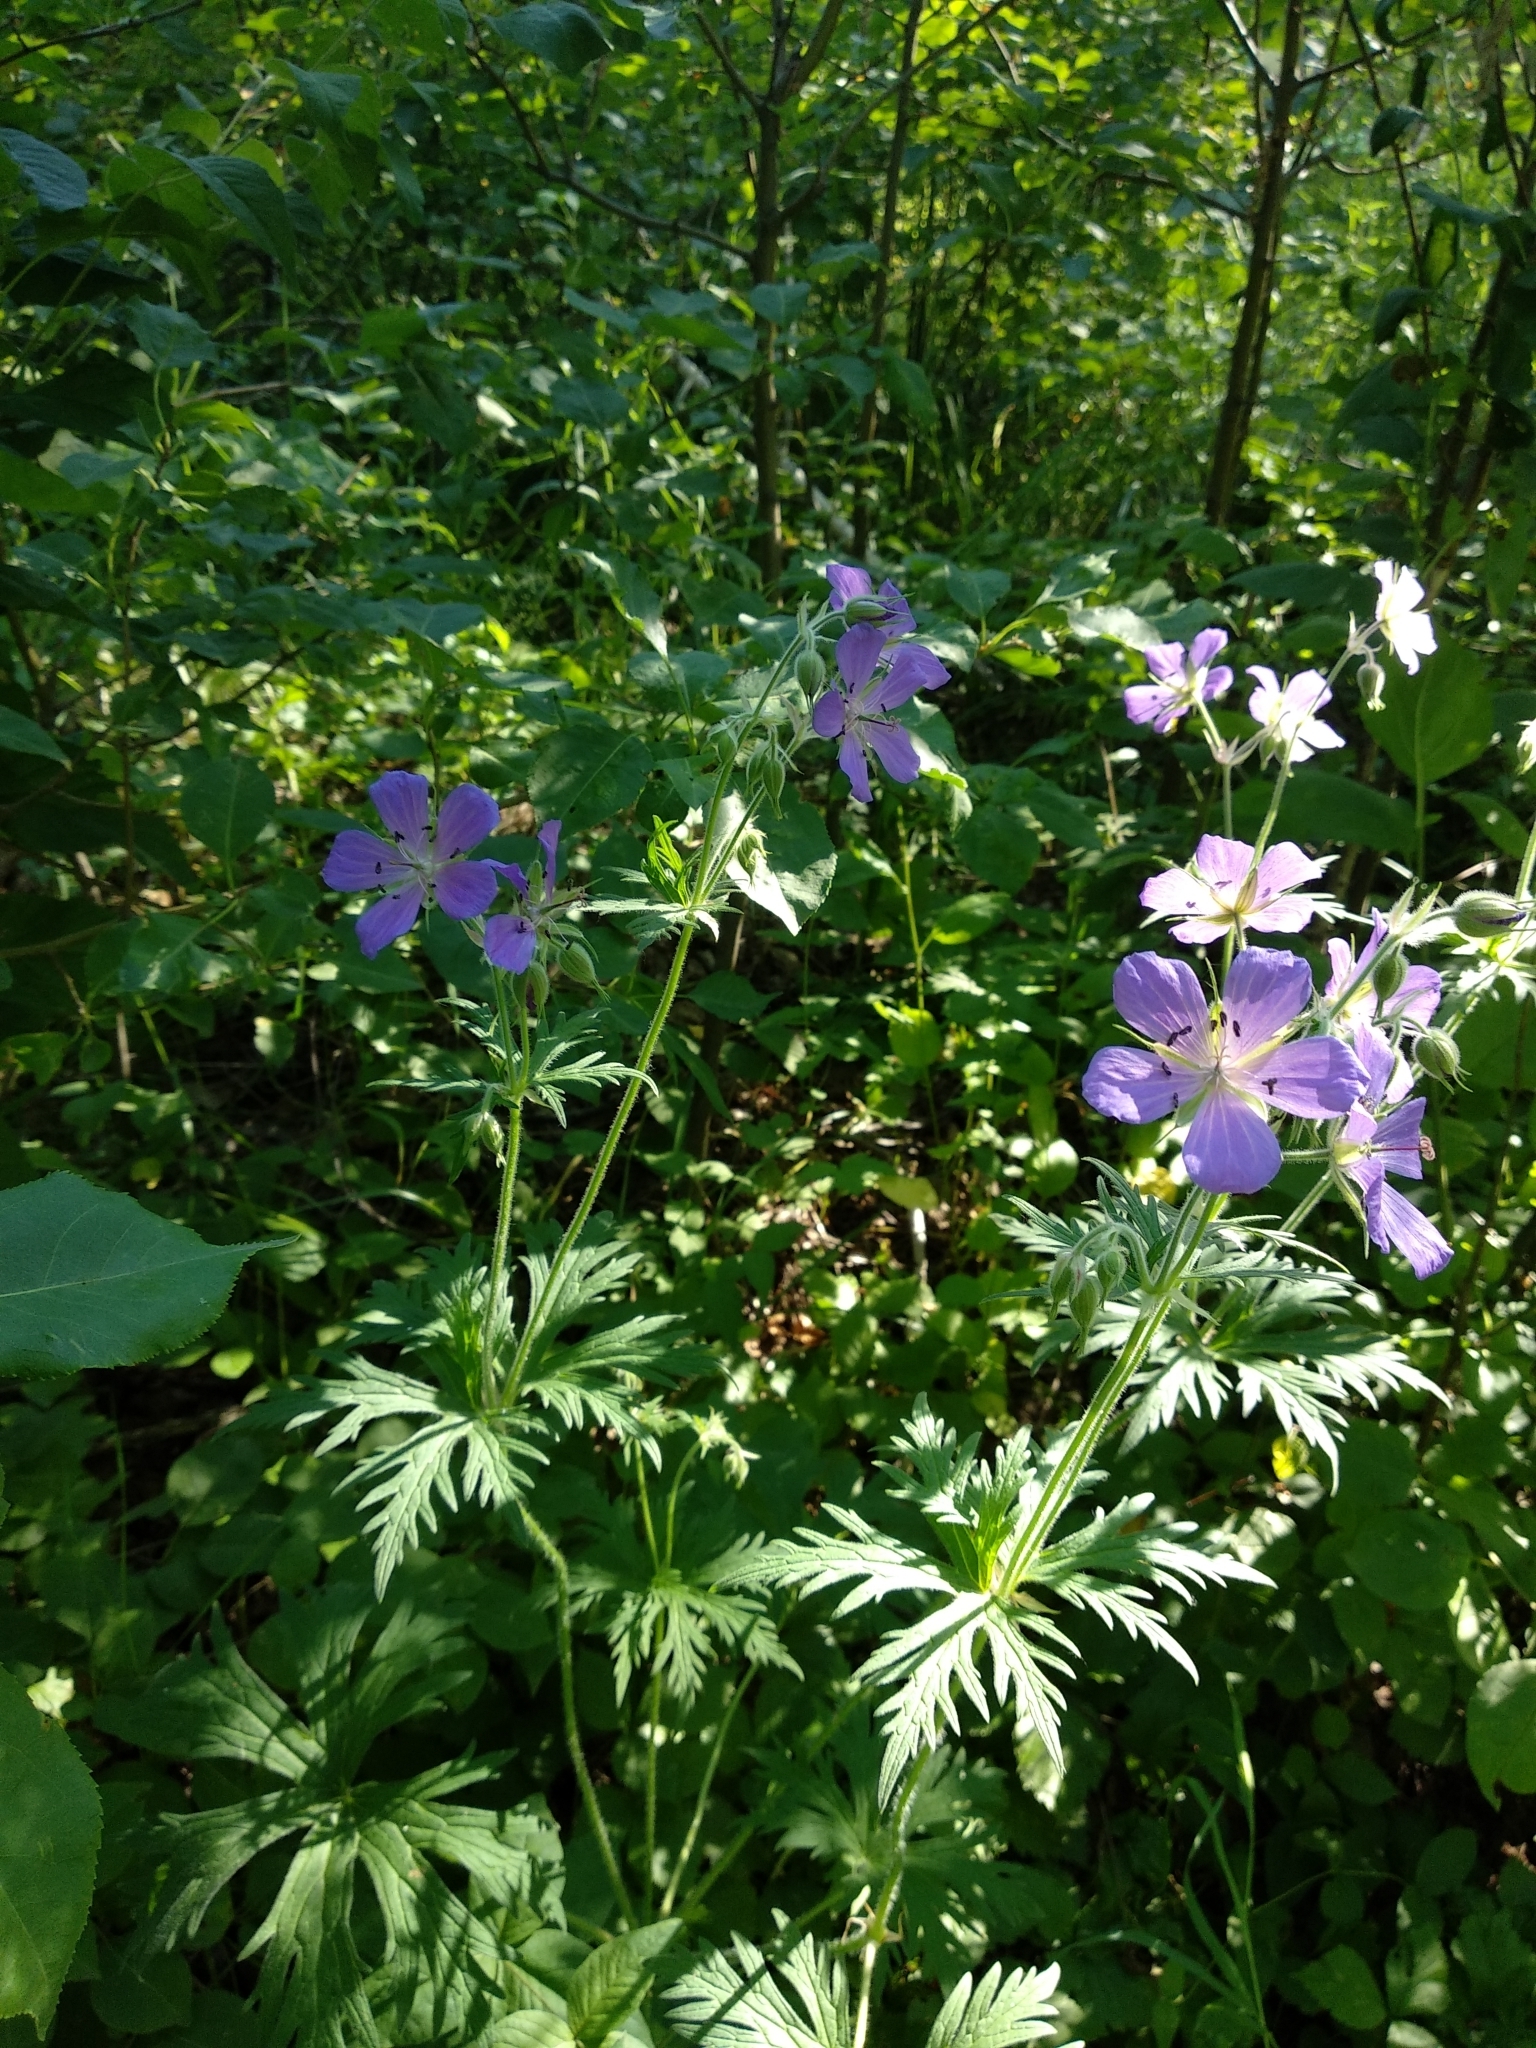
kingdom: Plantae
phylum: Tracheophyta
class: Magnoliopsida
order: Geraniales
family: Geraniaceae
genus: Geranium
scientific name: Geranium pratense
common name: Meadow crane's-bill
